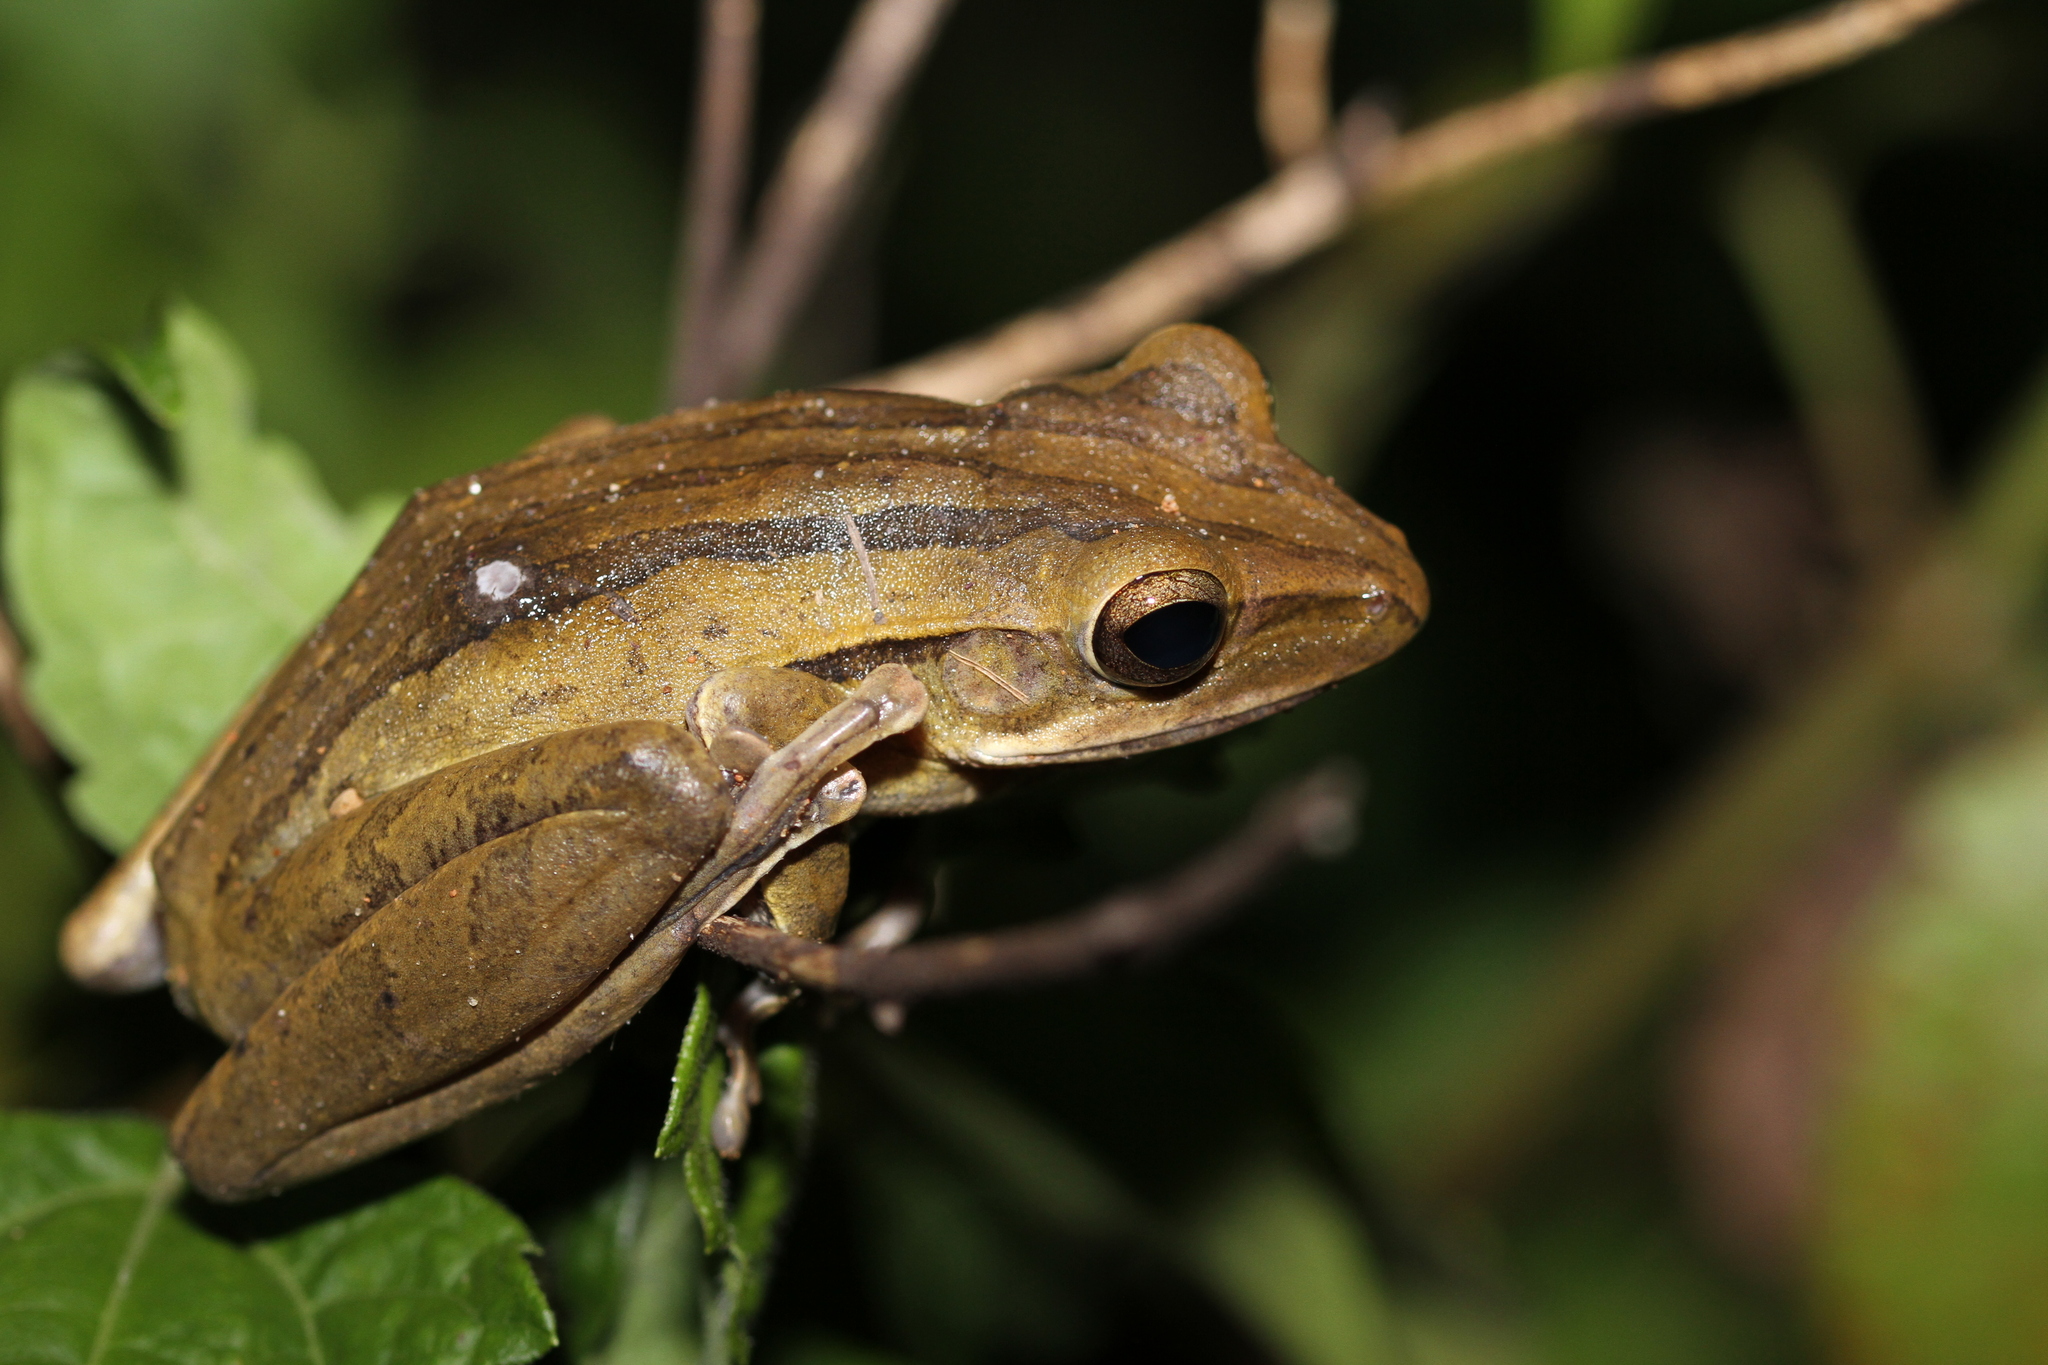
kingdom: Animalia
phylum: Chordata
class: Amphibia
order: Anura
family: Rhacophoridae
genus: Polypedates
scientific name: Polypedates leucomystax
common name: Common tree frog/four-lined tree frog
